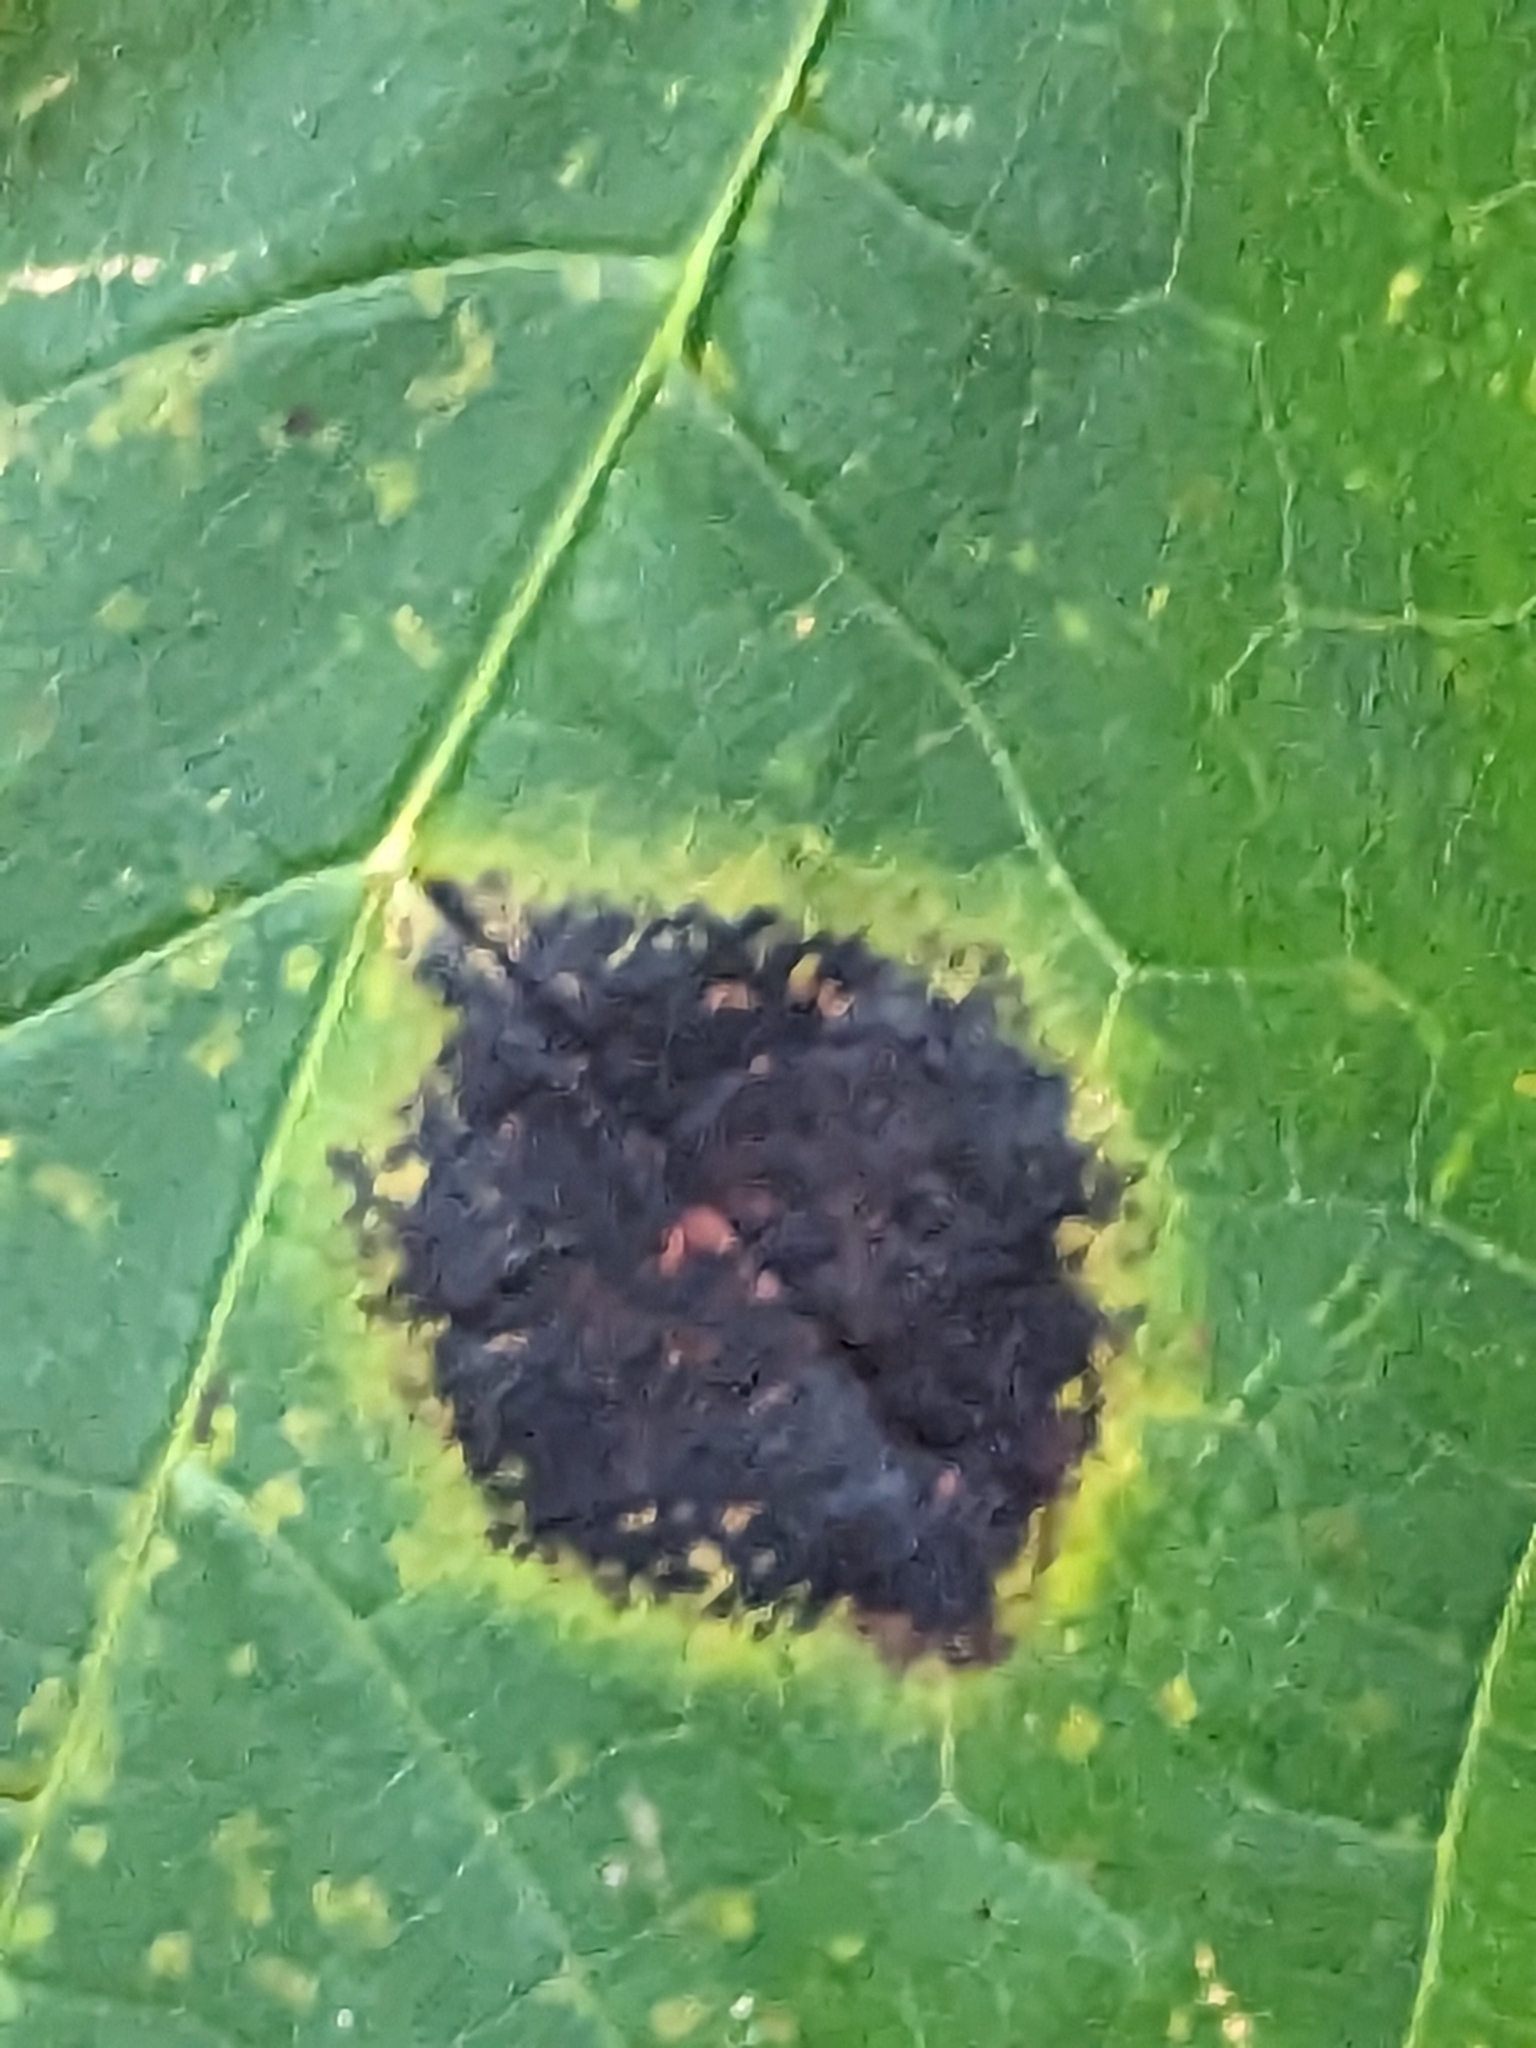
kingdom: Fungi
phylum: Ascomycota
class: Leotiomycetes
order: Rhytismatales
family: Rhytismataceae
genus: Rhytisma
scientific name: Rhytisma acerinum
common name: European tar spot
